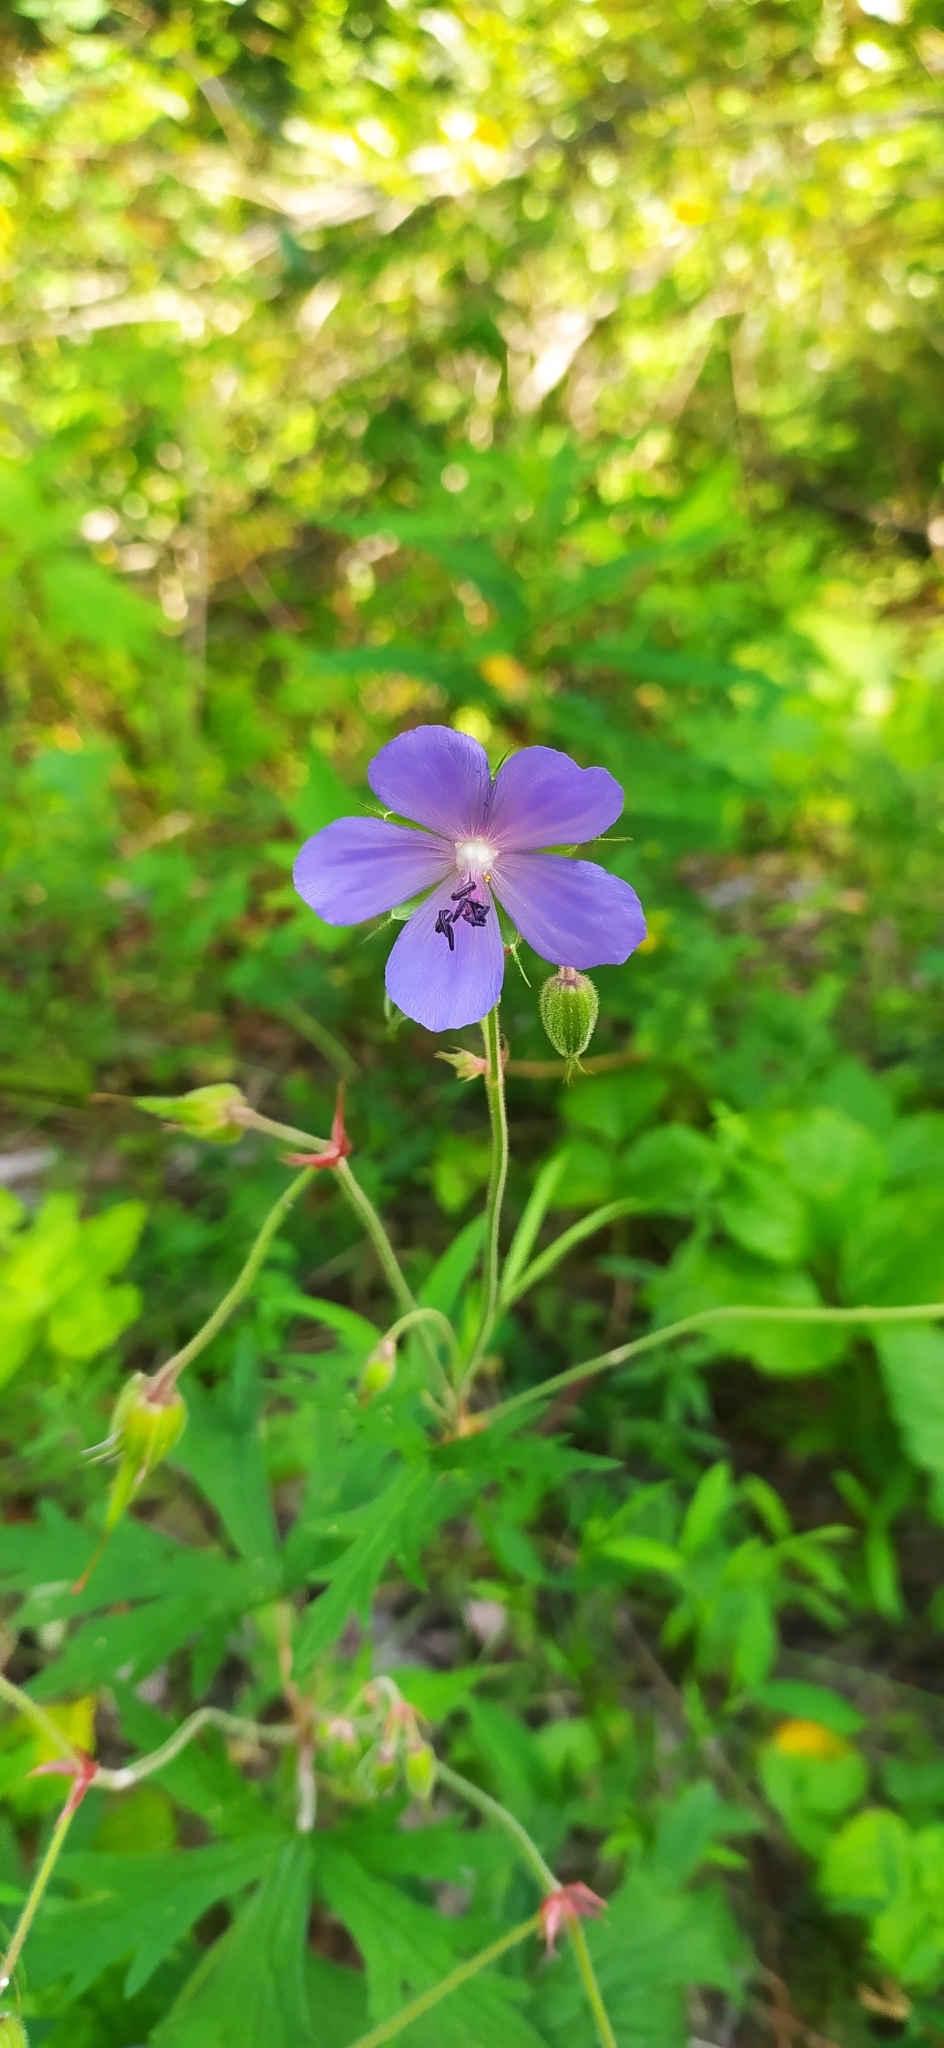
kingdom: Plantae
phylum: Tracheophyta
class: Magnoliopsida
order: Geraniales
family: Geraniaceae
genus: Geranium
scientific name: Geranium pratense
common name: Meadow crane's-bill
